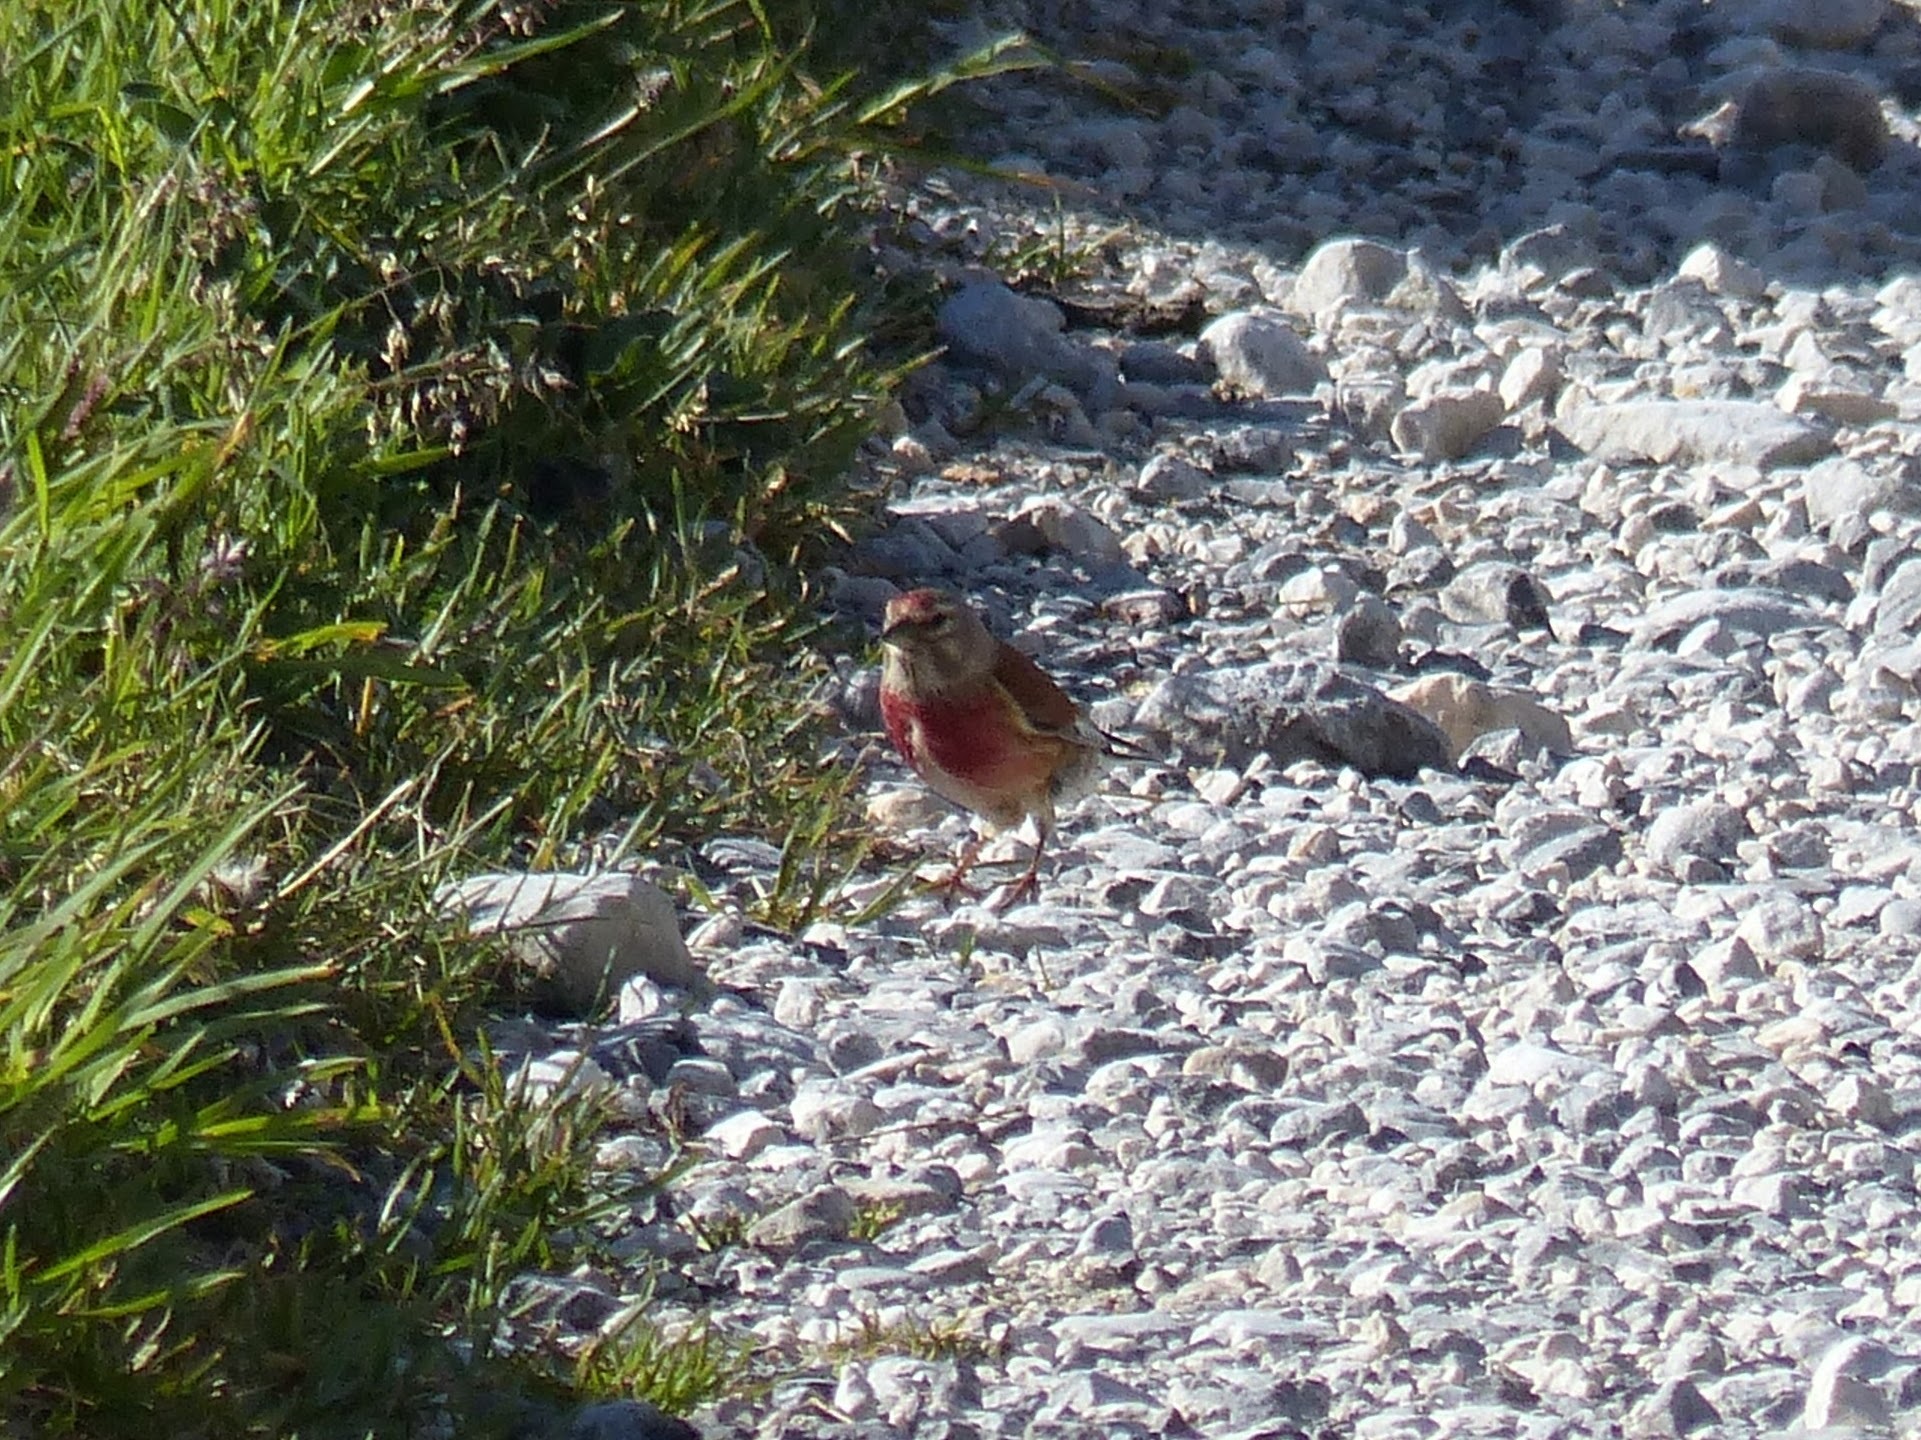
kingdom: Animalia
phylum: Chordata
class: Aves
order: Passeriformes
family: Fringillidae
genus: Linaria
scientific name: Linaria cannabina
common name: Common linnet
